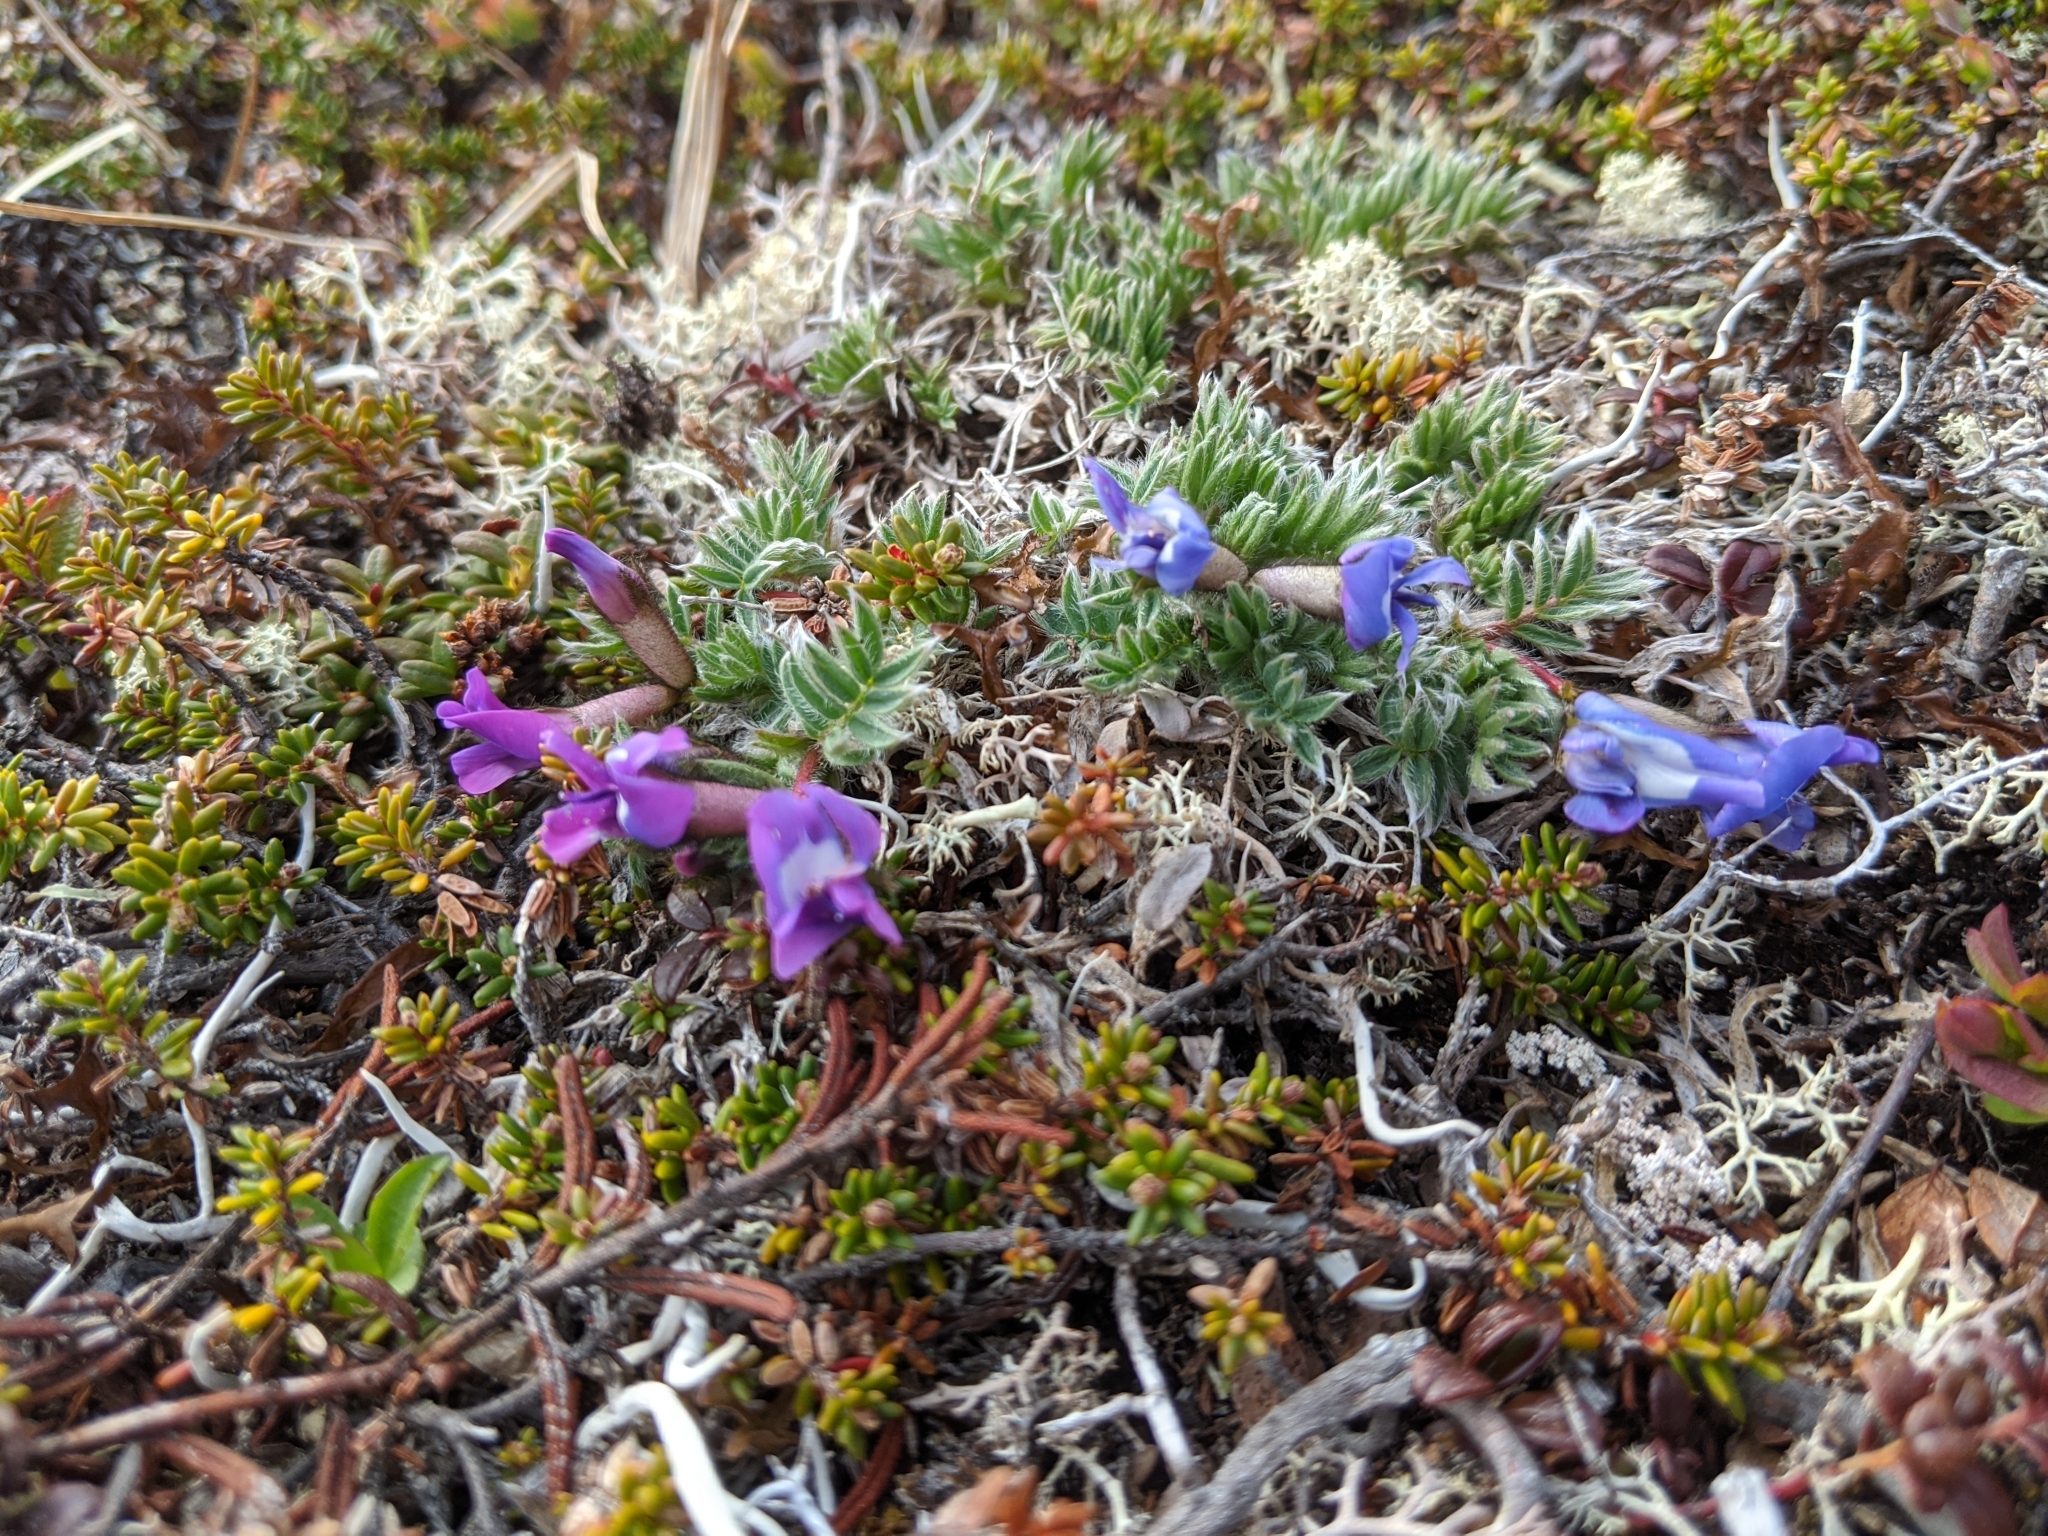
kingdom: Plantae
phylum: Tracheophyta
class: Magnoliopsida
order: Fabales
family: Fabaceae
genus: Oxytropis
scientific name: Oxytropis nigrescens
